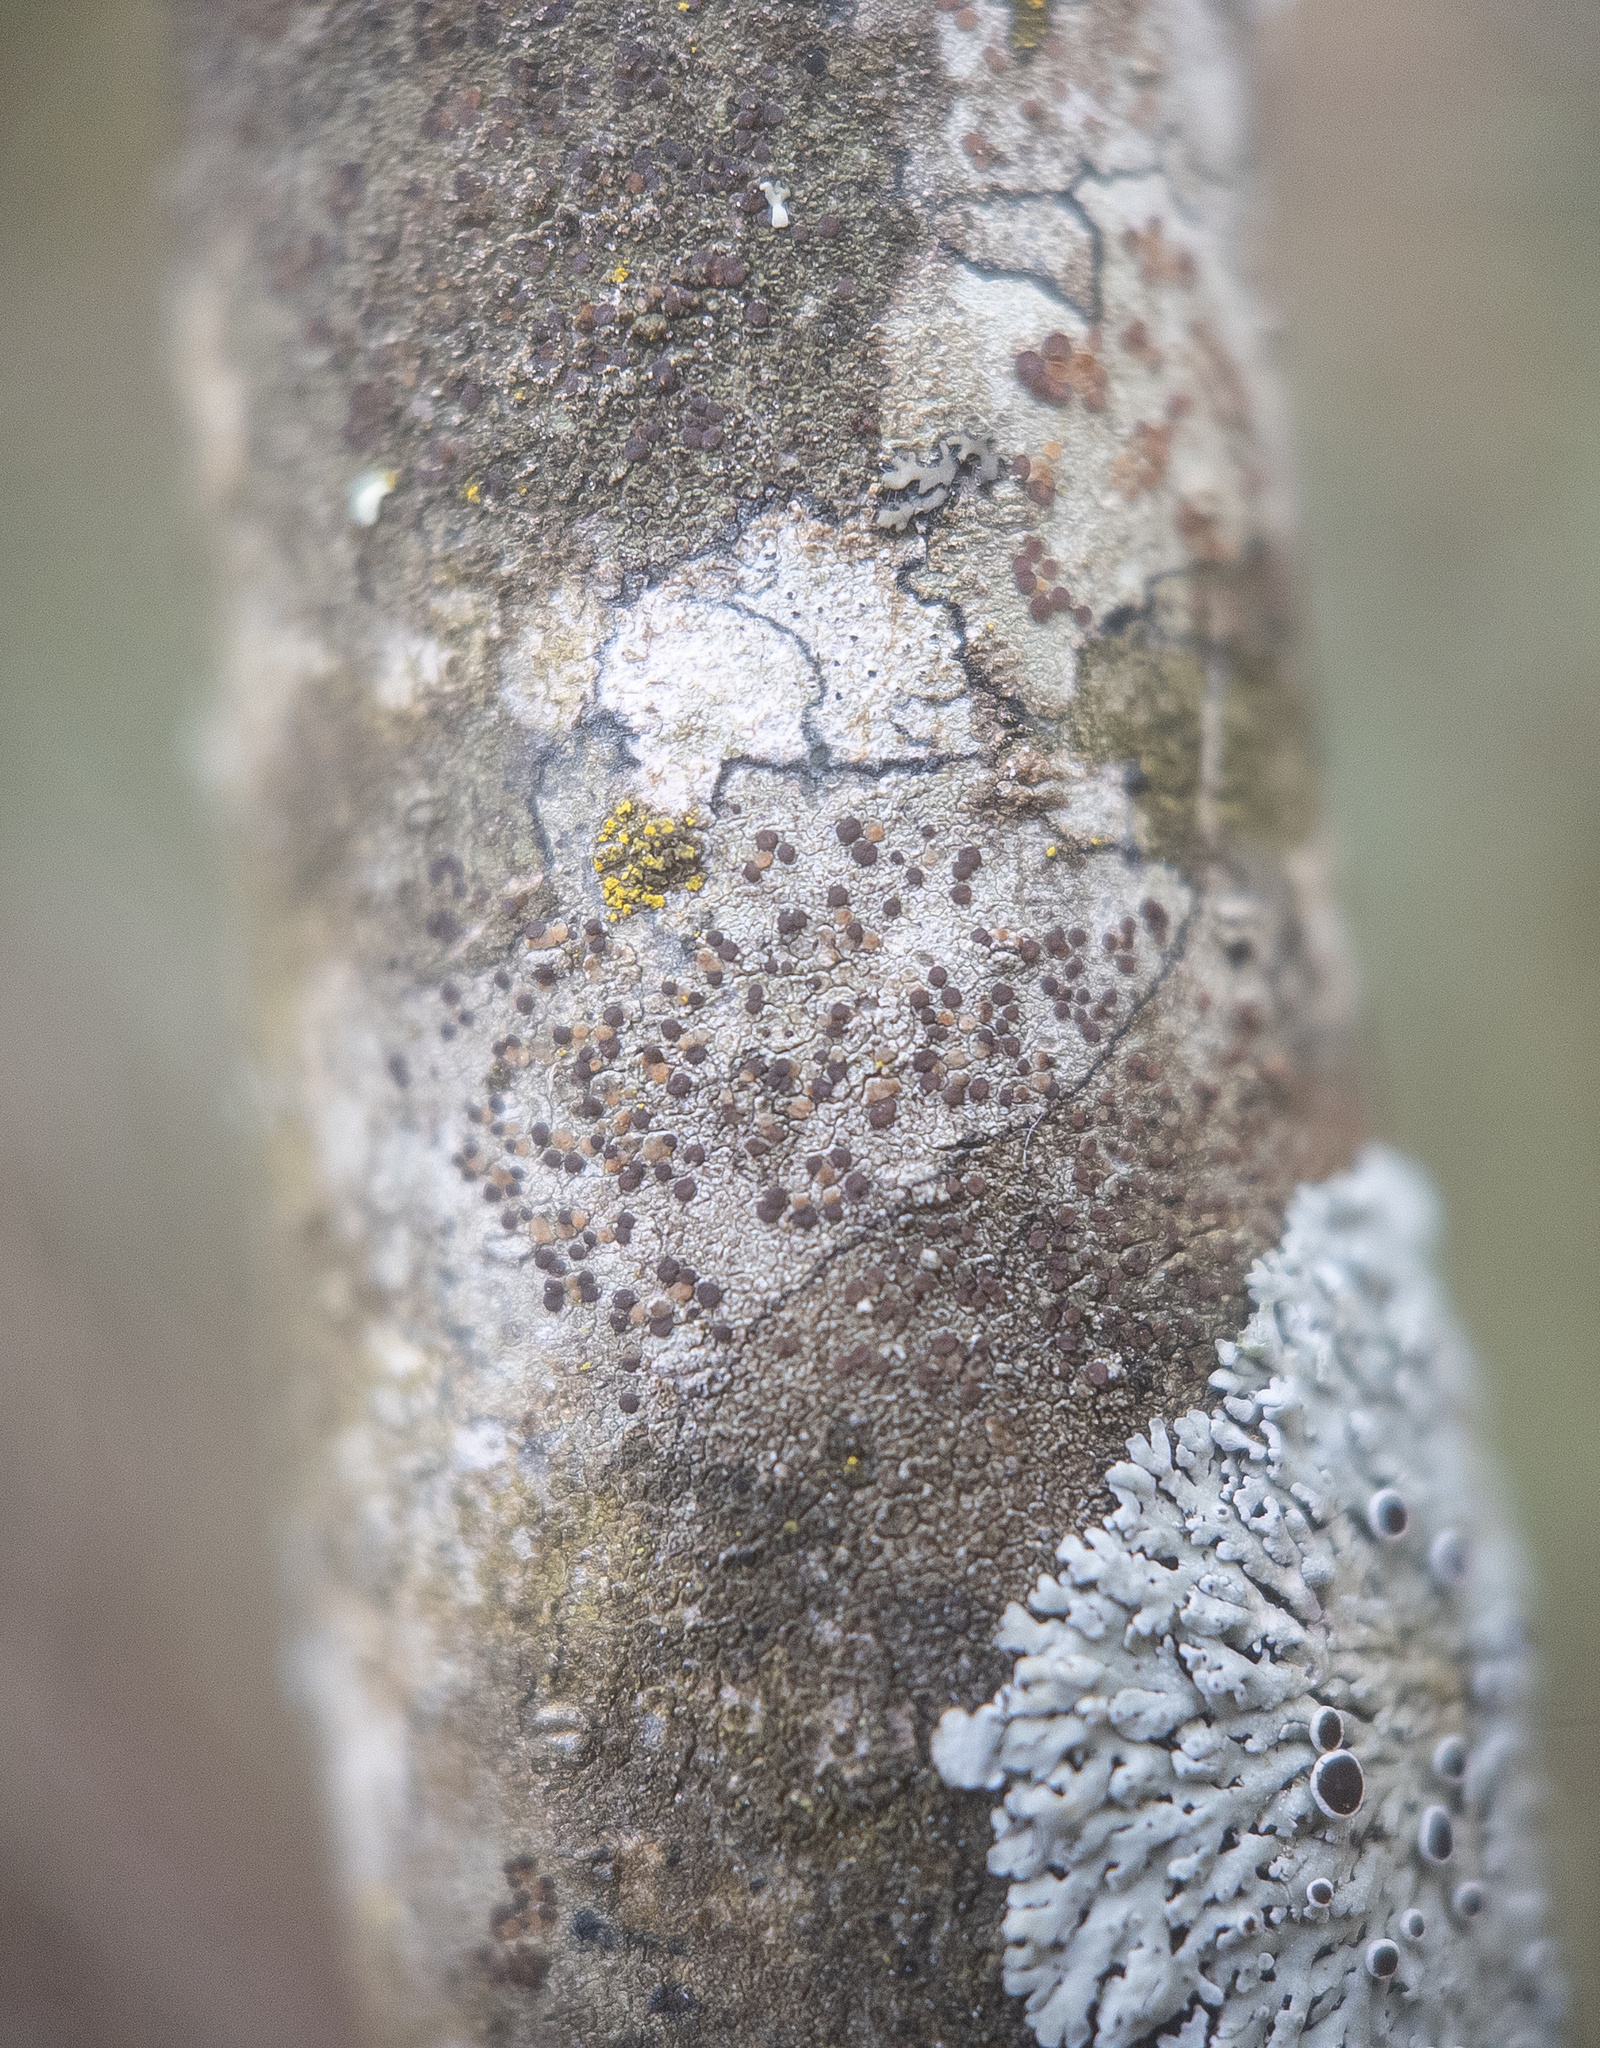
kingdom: Fungi
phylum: Ascomycota
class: Lecanoromycetes
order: Lecanorales
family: Lecanoraceae
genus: Traponora
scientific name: Traponora varians
